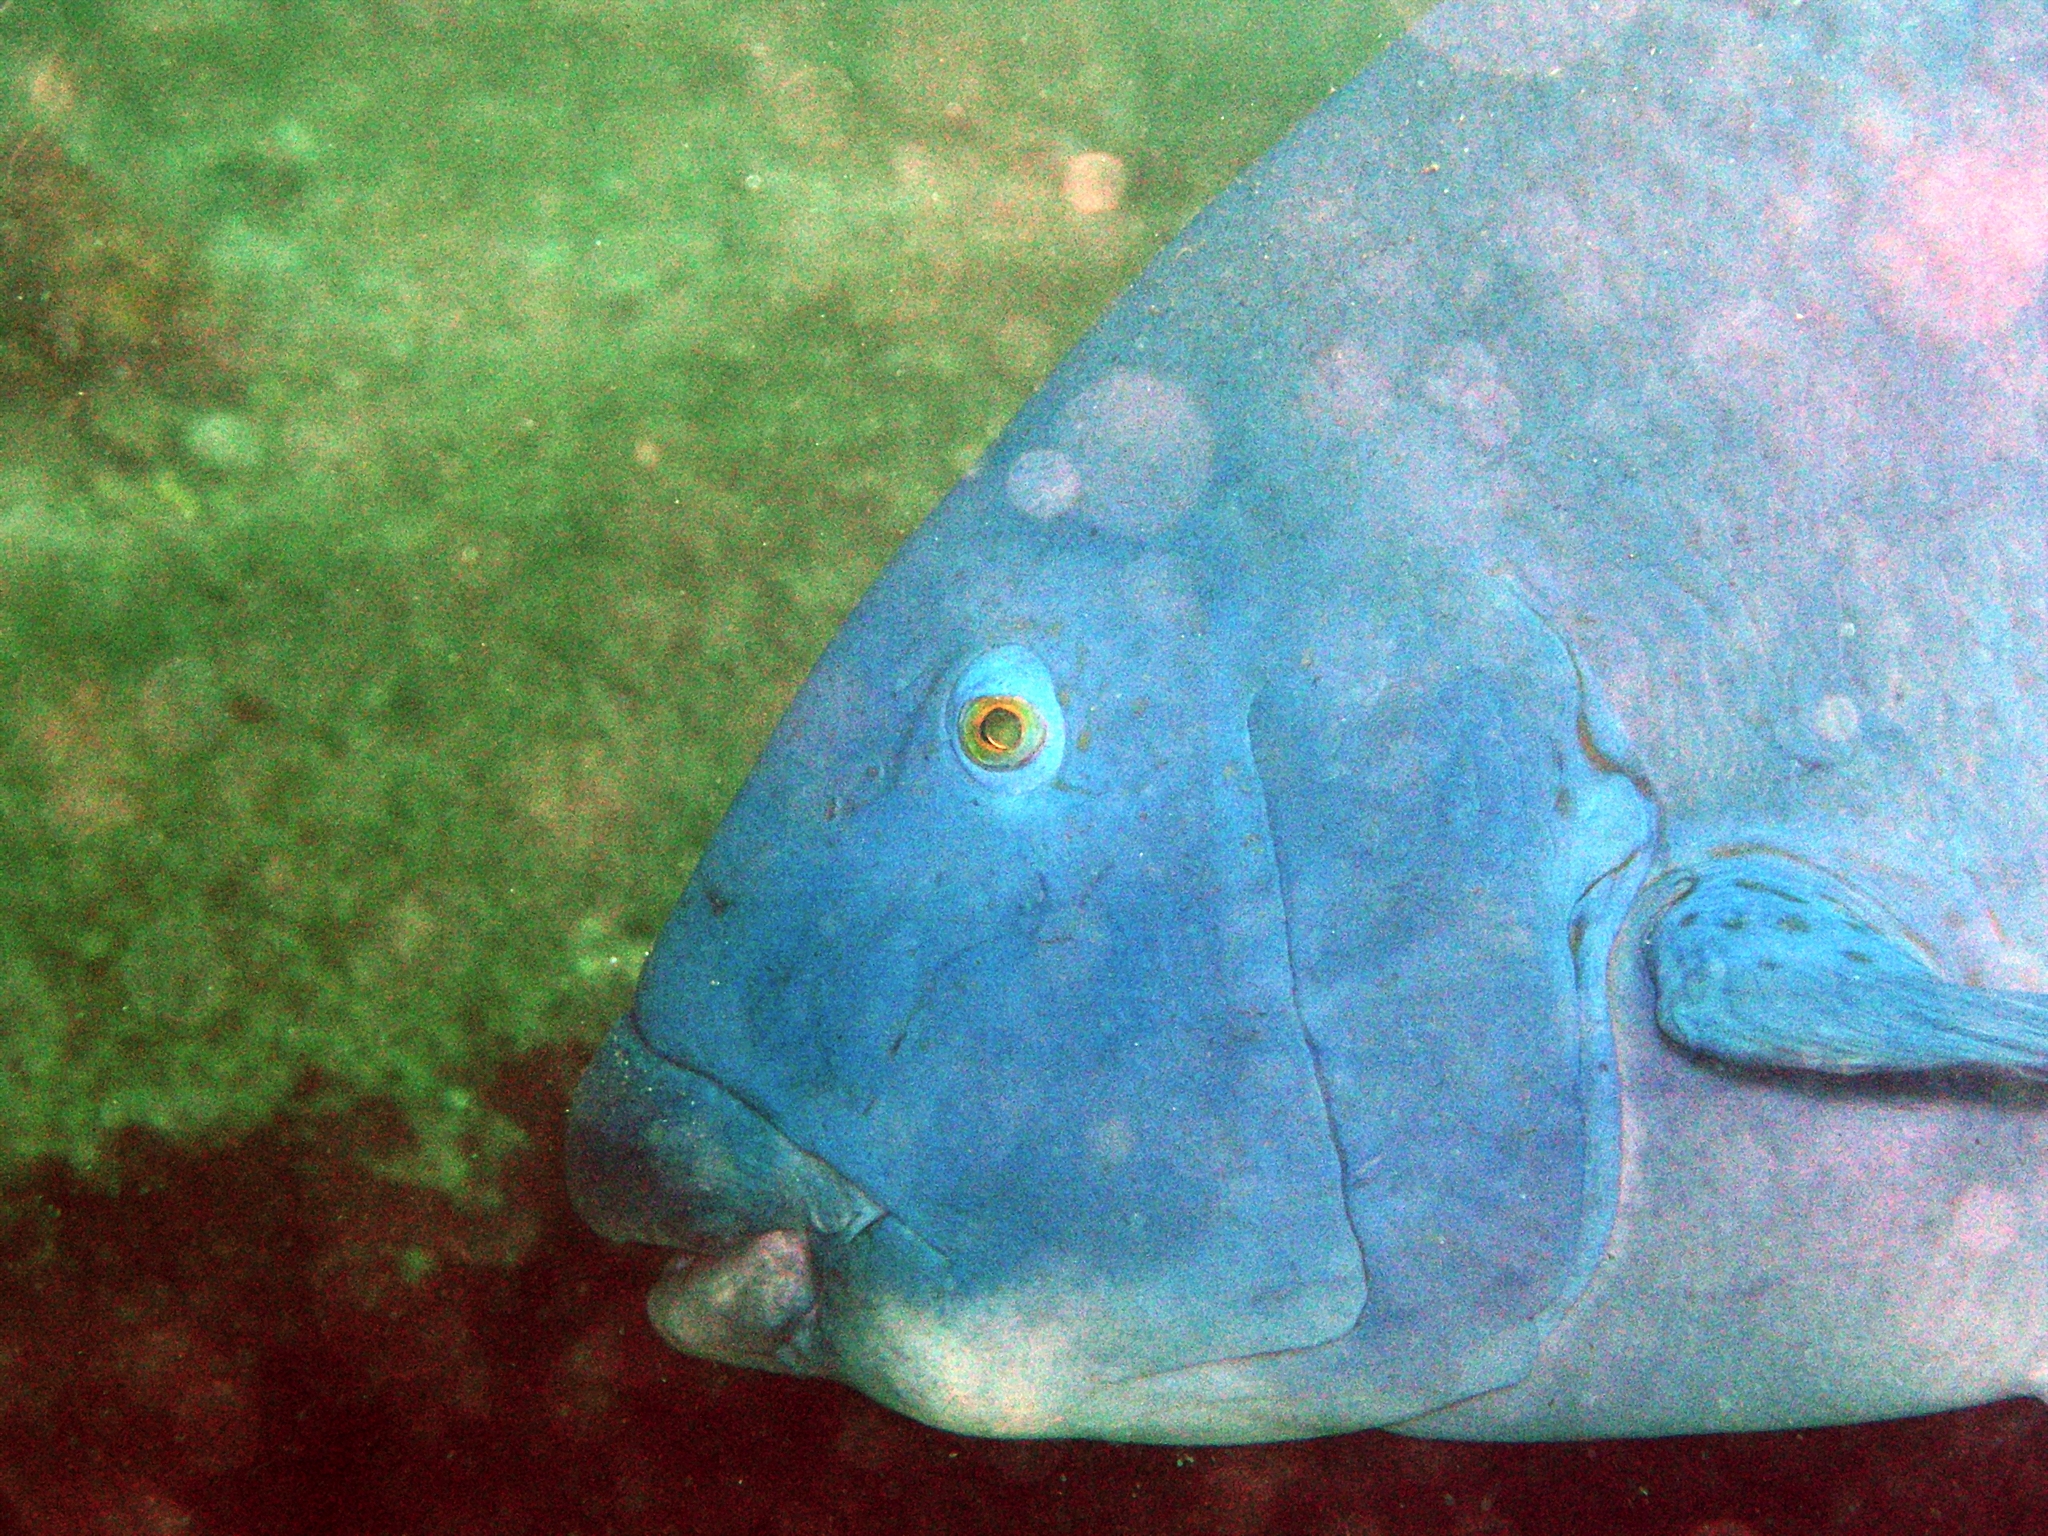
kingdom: Animalia
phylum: Chordata
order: Perciformes
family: Labridae
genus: Achoerodus
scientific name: Achoerodus viridis
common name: Brown groper
